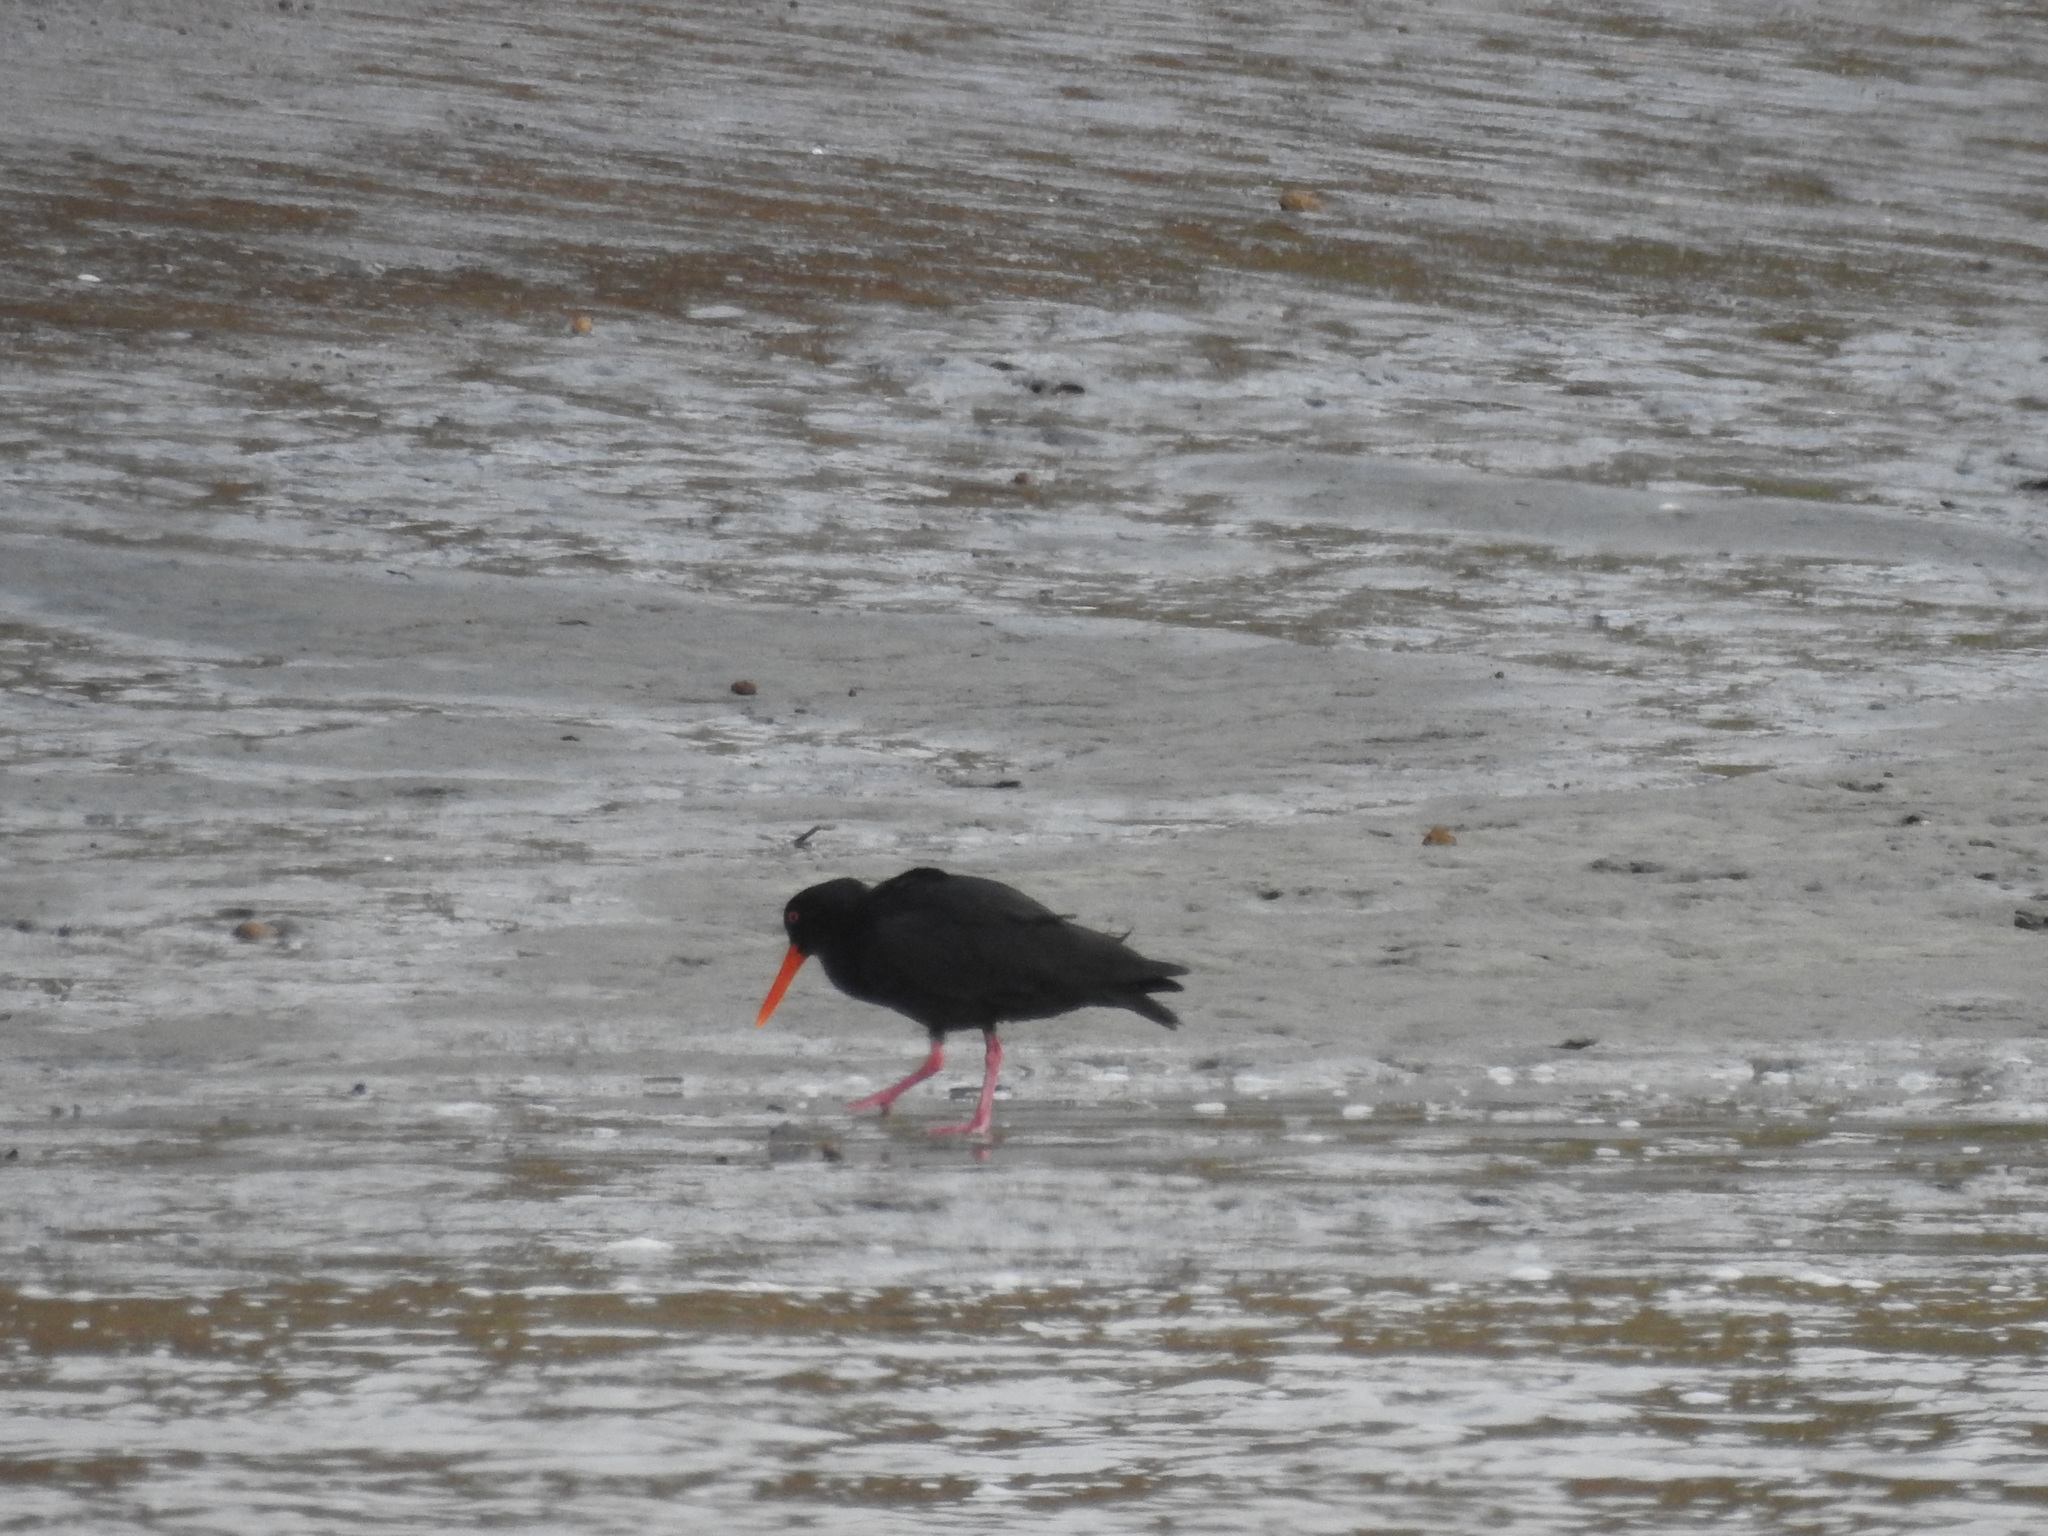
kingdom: Animalia
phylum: Chordata
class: Aves
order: Charadriiformes
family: Haematopodidae
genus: Haematopus
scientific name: Haematopus unicolor
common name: Variable oystercatcher
